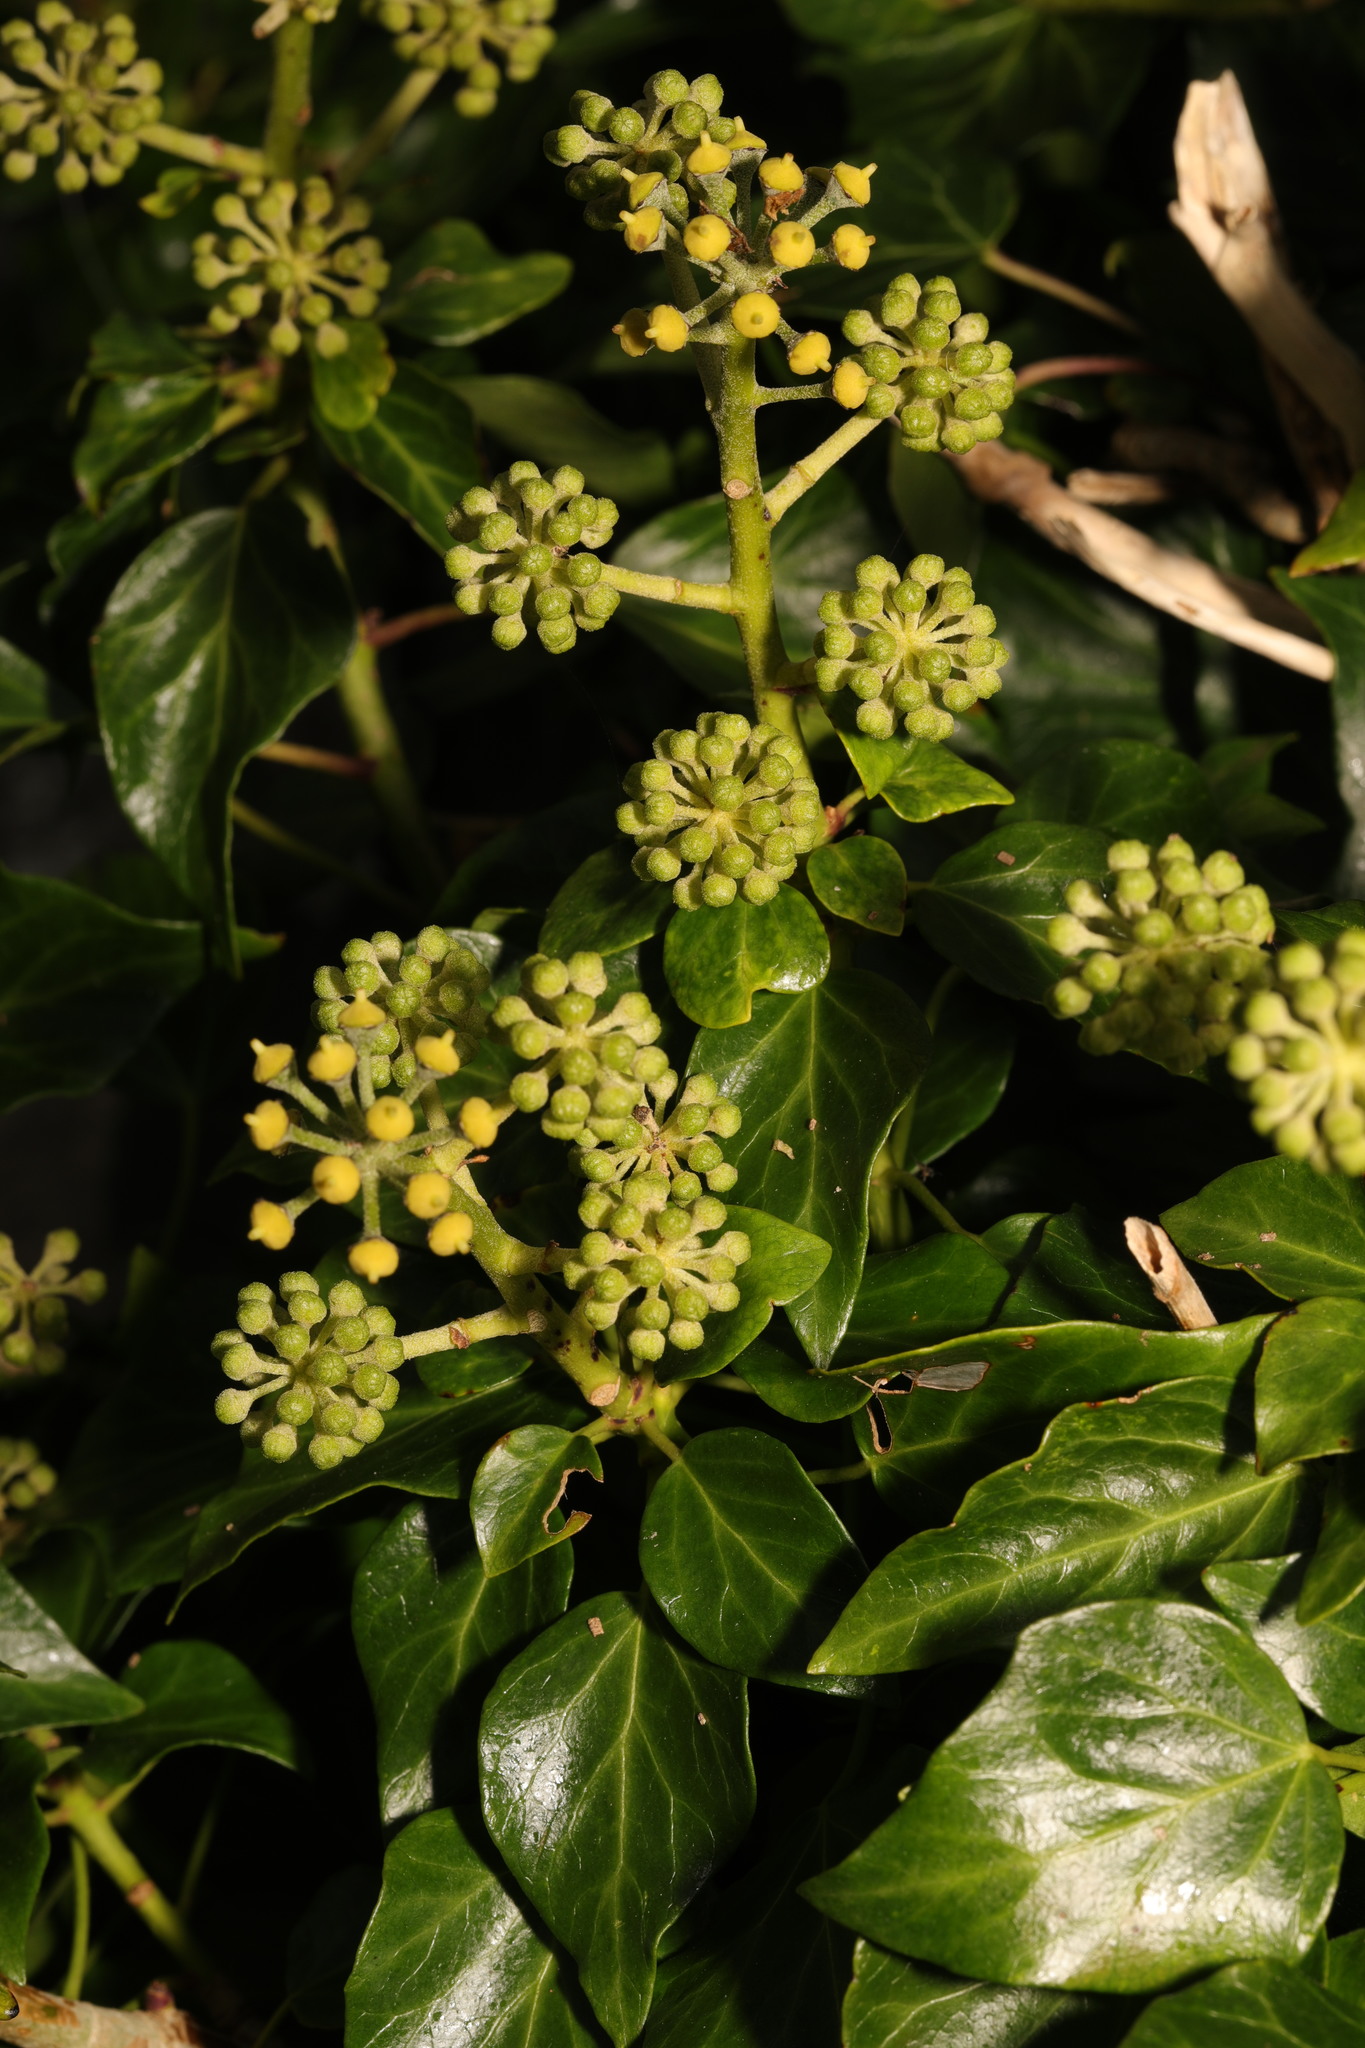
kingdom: Plantae
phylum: Tracheophyta
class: Magnoliopsida
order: Apiales
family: Araliaceae
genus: Hedera
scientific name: Hedera helix
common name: Ivy
